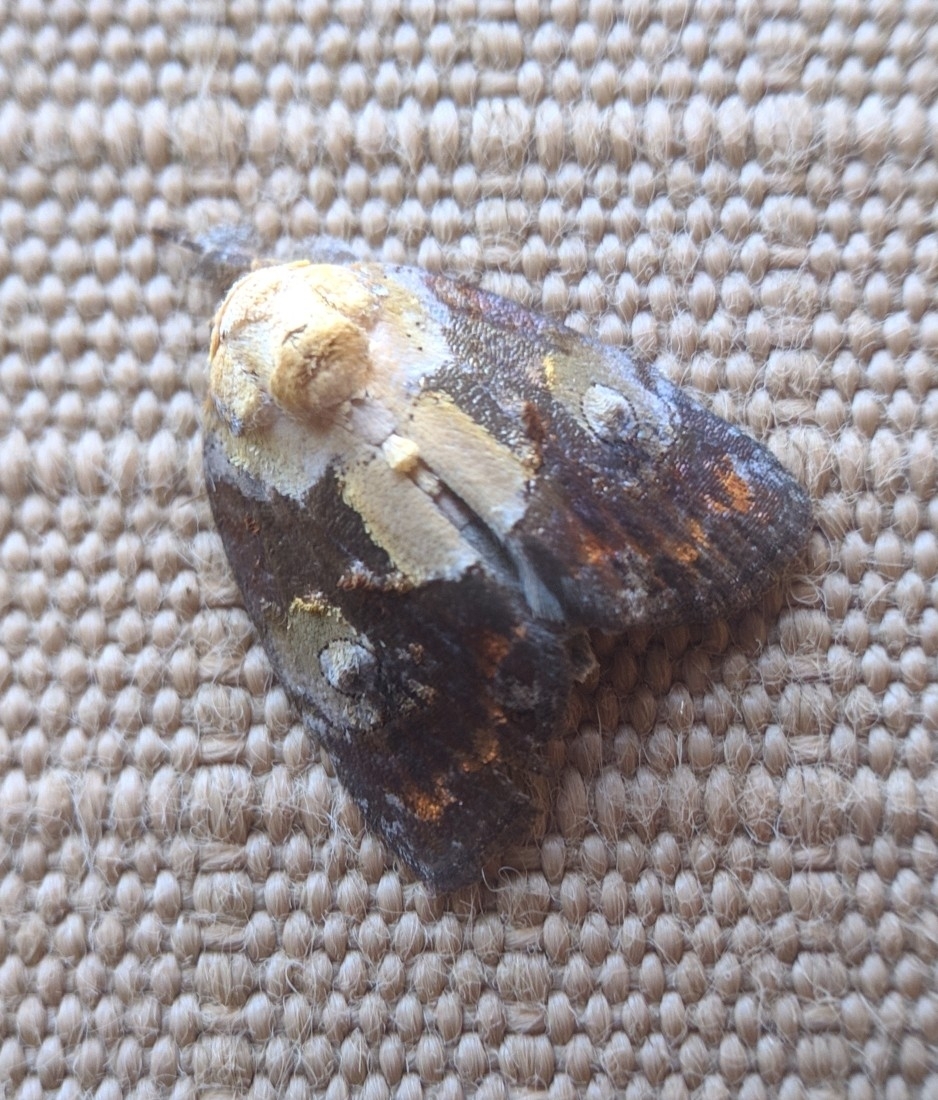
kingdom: Animalia
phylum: Arthropoda
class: Insecta
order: Lepidoptera
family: Nolidae
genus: Negritothripa
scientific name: Negritothripa orbifera
